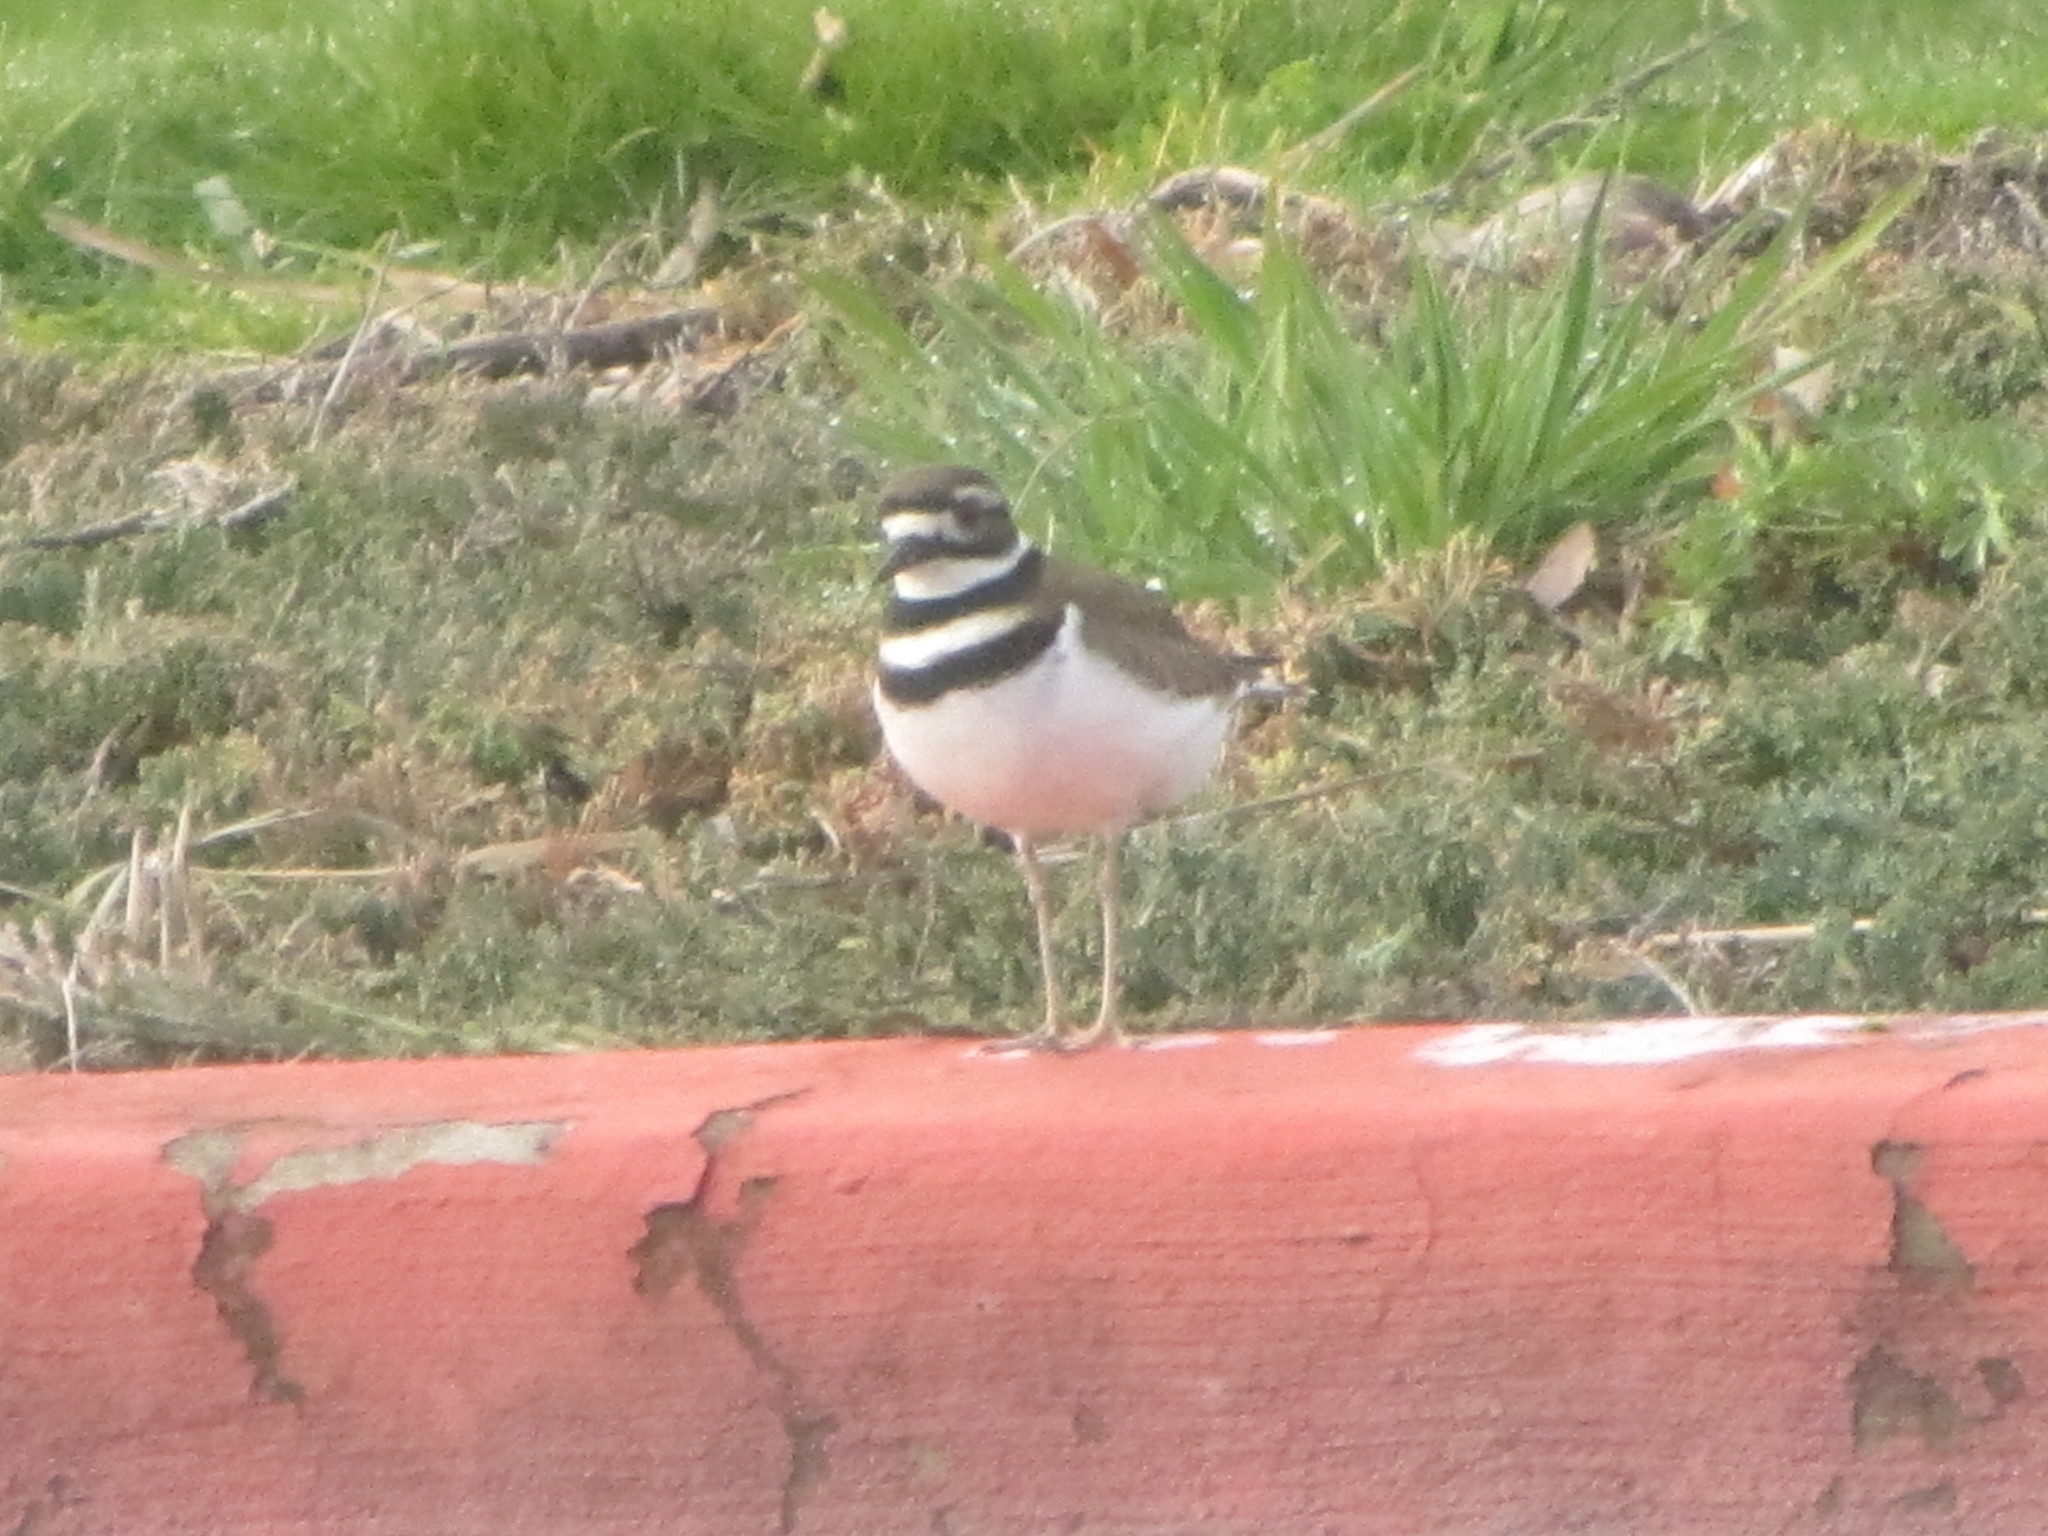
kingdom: Animalia
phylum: Chordata
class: Aves
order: Charadriiformes
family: Charadriidae
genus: Charadrius
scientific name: Charadrius vociferus
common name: Killdeer
